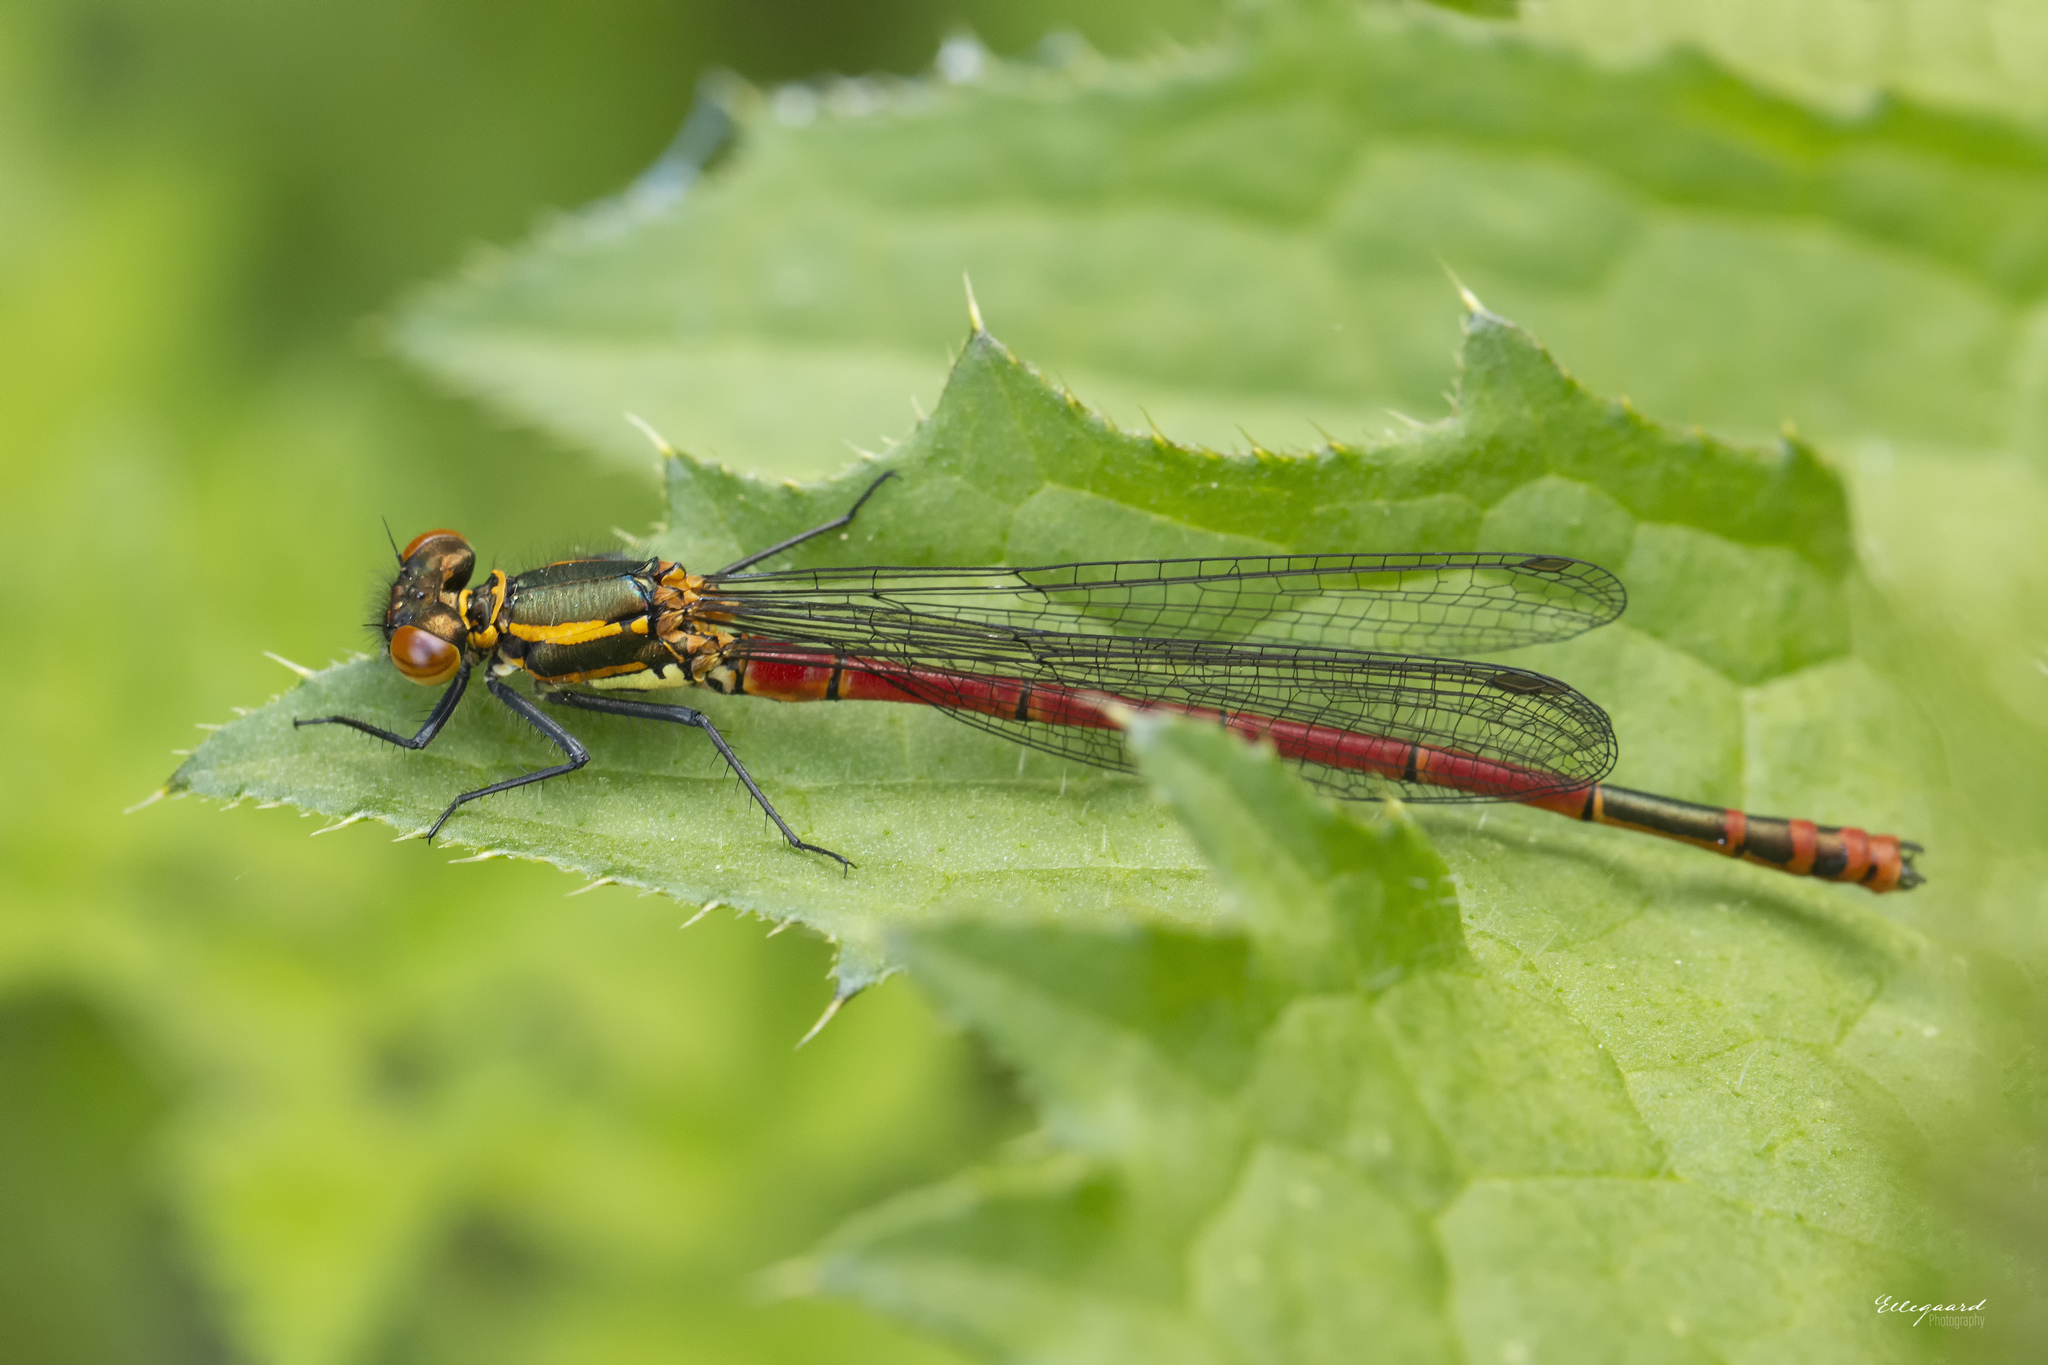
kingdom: Animalia
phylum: Arthropoda
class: Insecta
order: Odonata
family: Coenagrionidae
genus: Pyrrhosoma
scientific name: Pyrrhosoma nymphula
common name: Large red damsel
